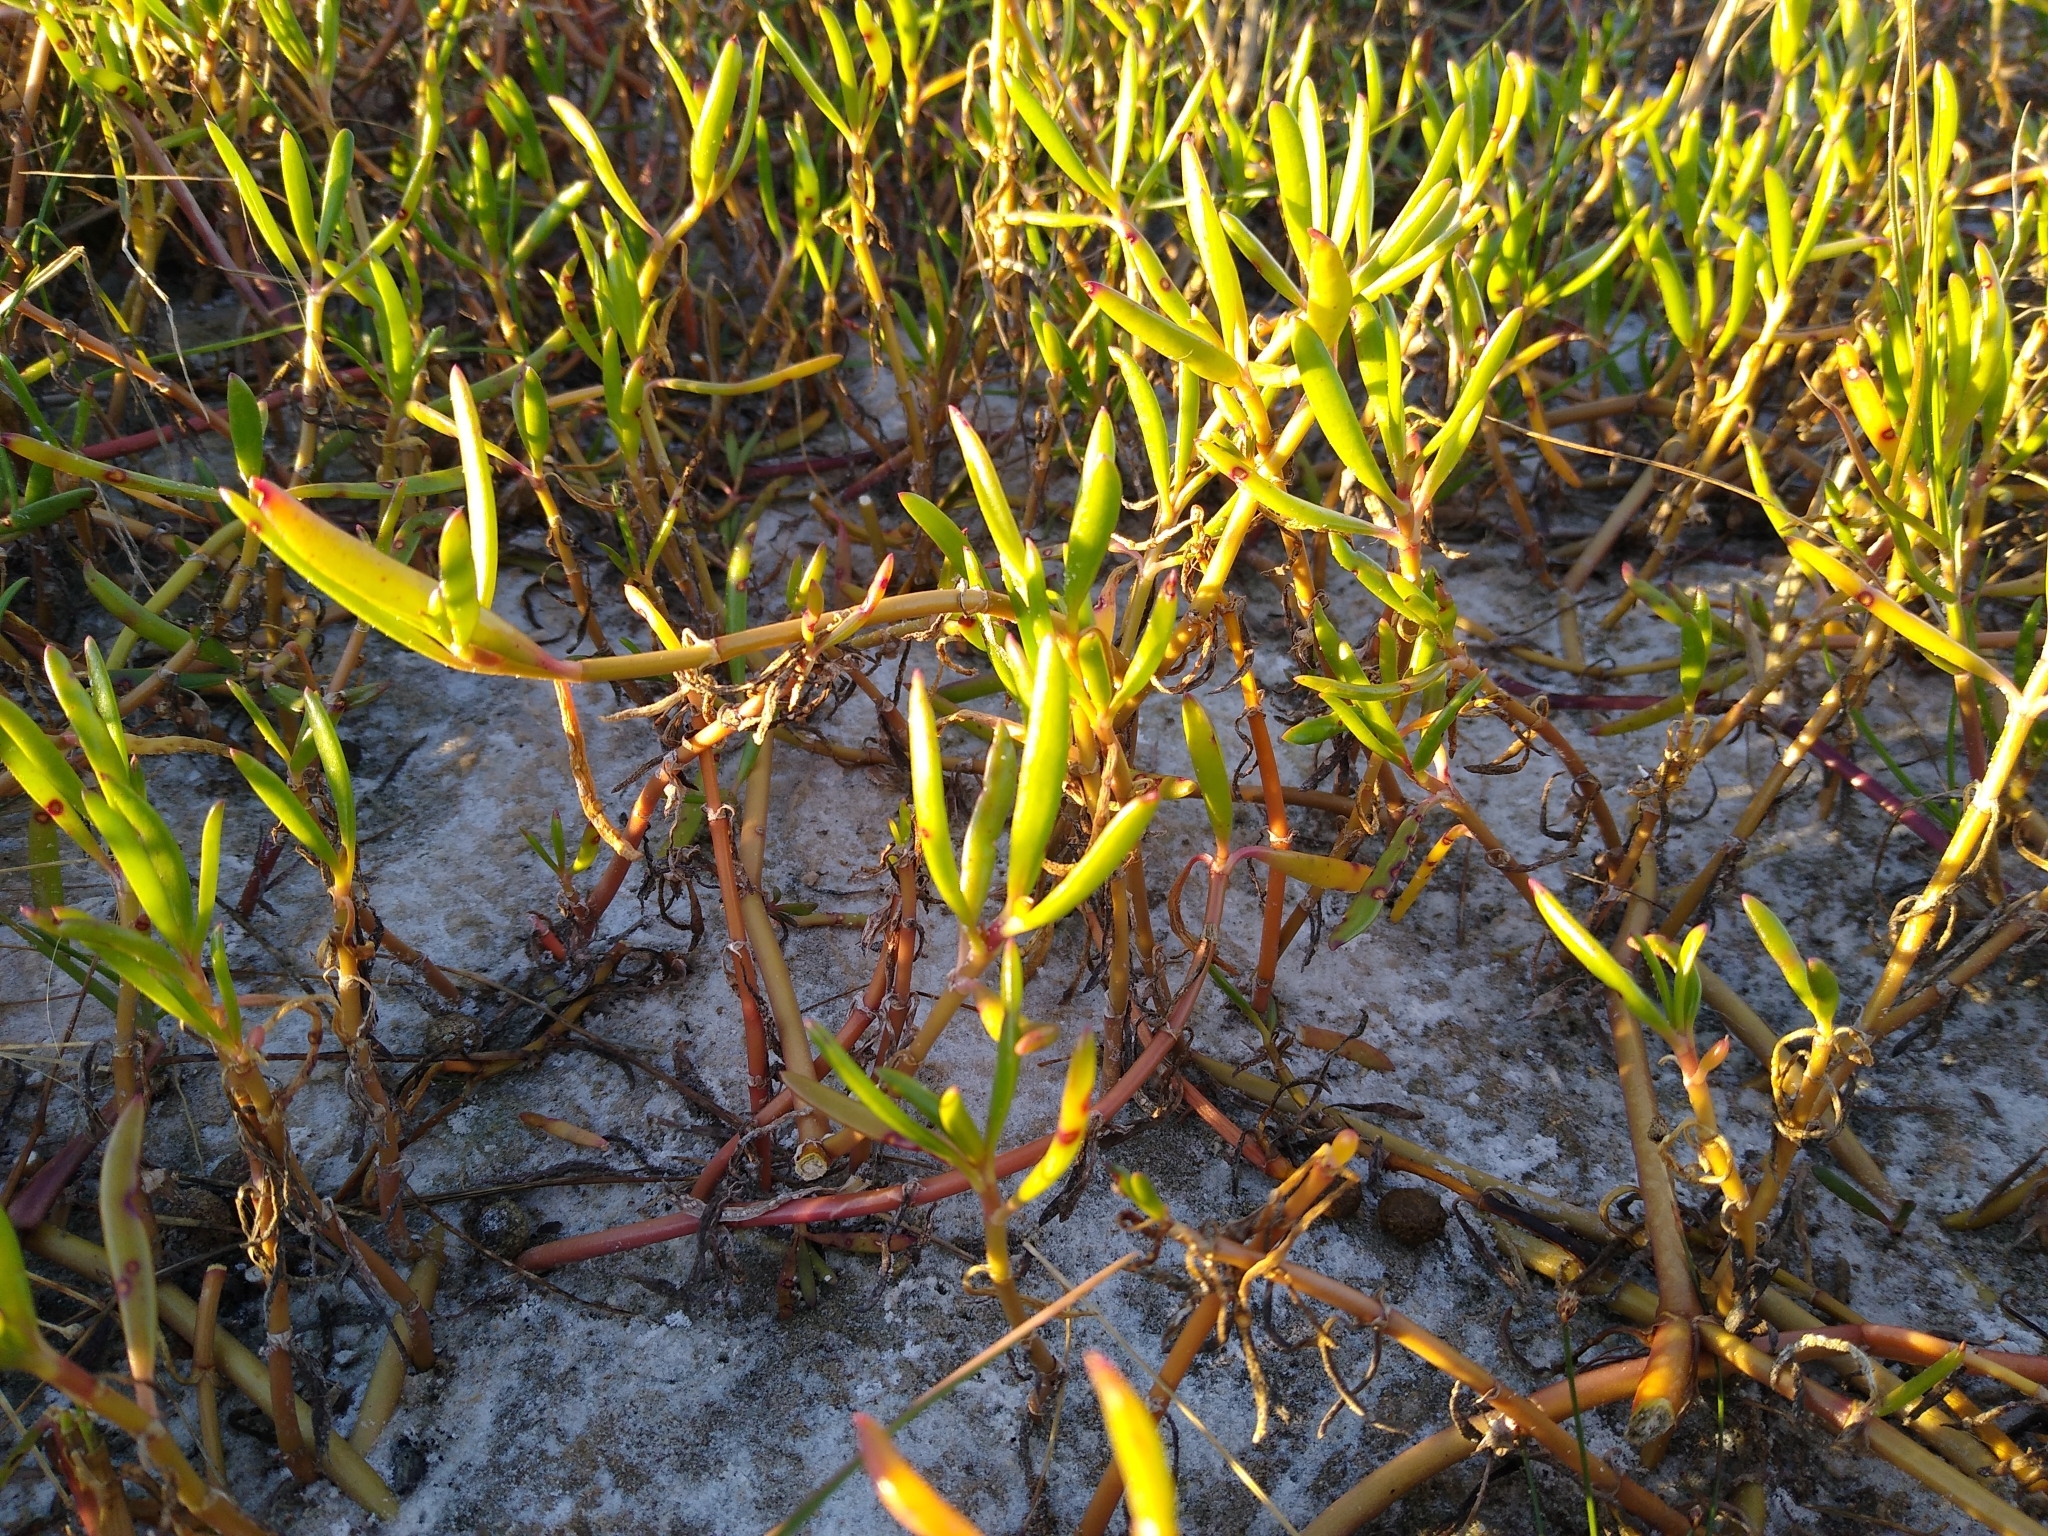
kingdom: Plantae
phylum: Tracheophyta
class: Magnoliopsida
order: Caryophyllales
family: Aizoaceae
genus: Sesuvium
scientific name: Sesuvium portulacastrum
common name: Sea-purslane
